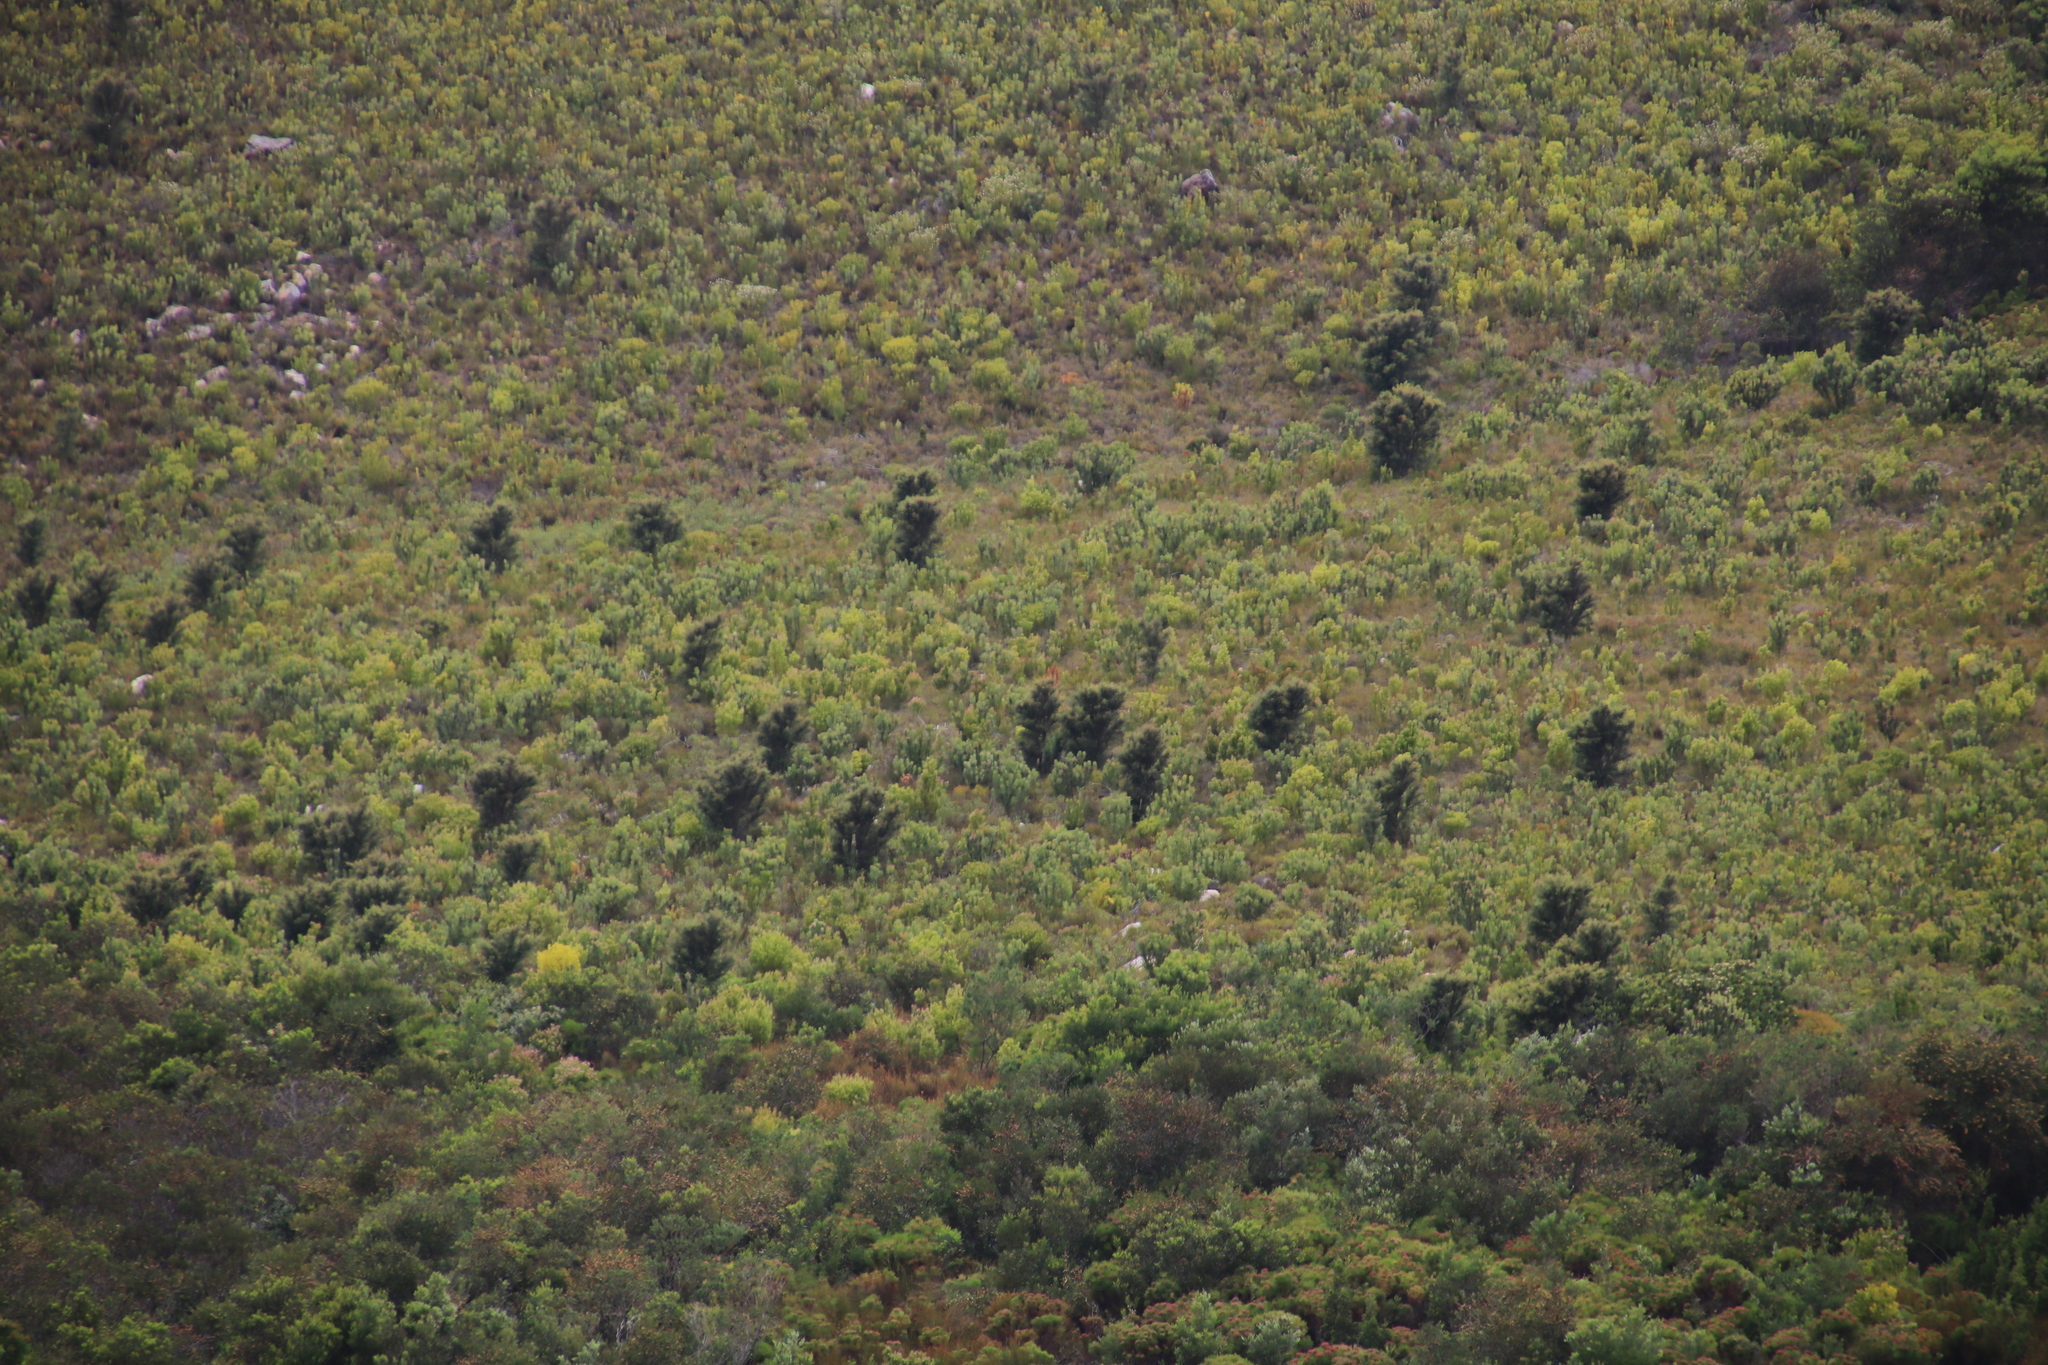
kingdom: Plantae
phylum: Tracheophyta
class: Magnoliopsida
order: Proteales
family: Proteaceae
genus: Hakea
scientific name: Hakea sericea
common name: Needle bush
